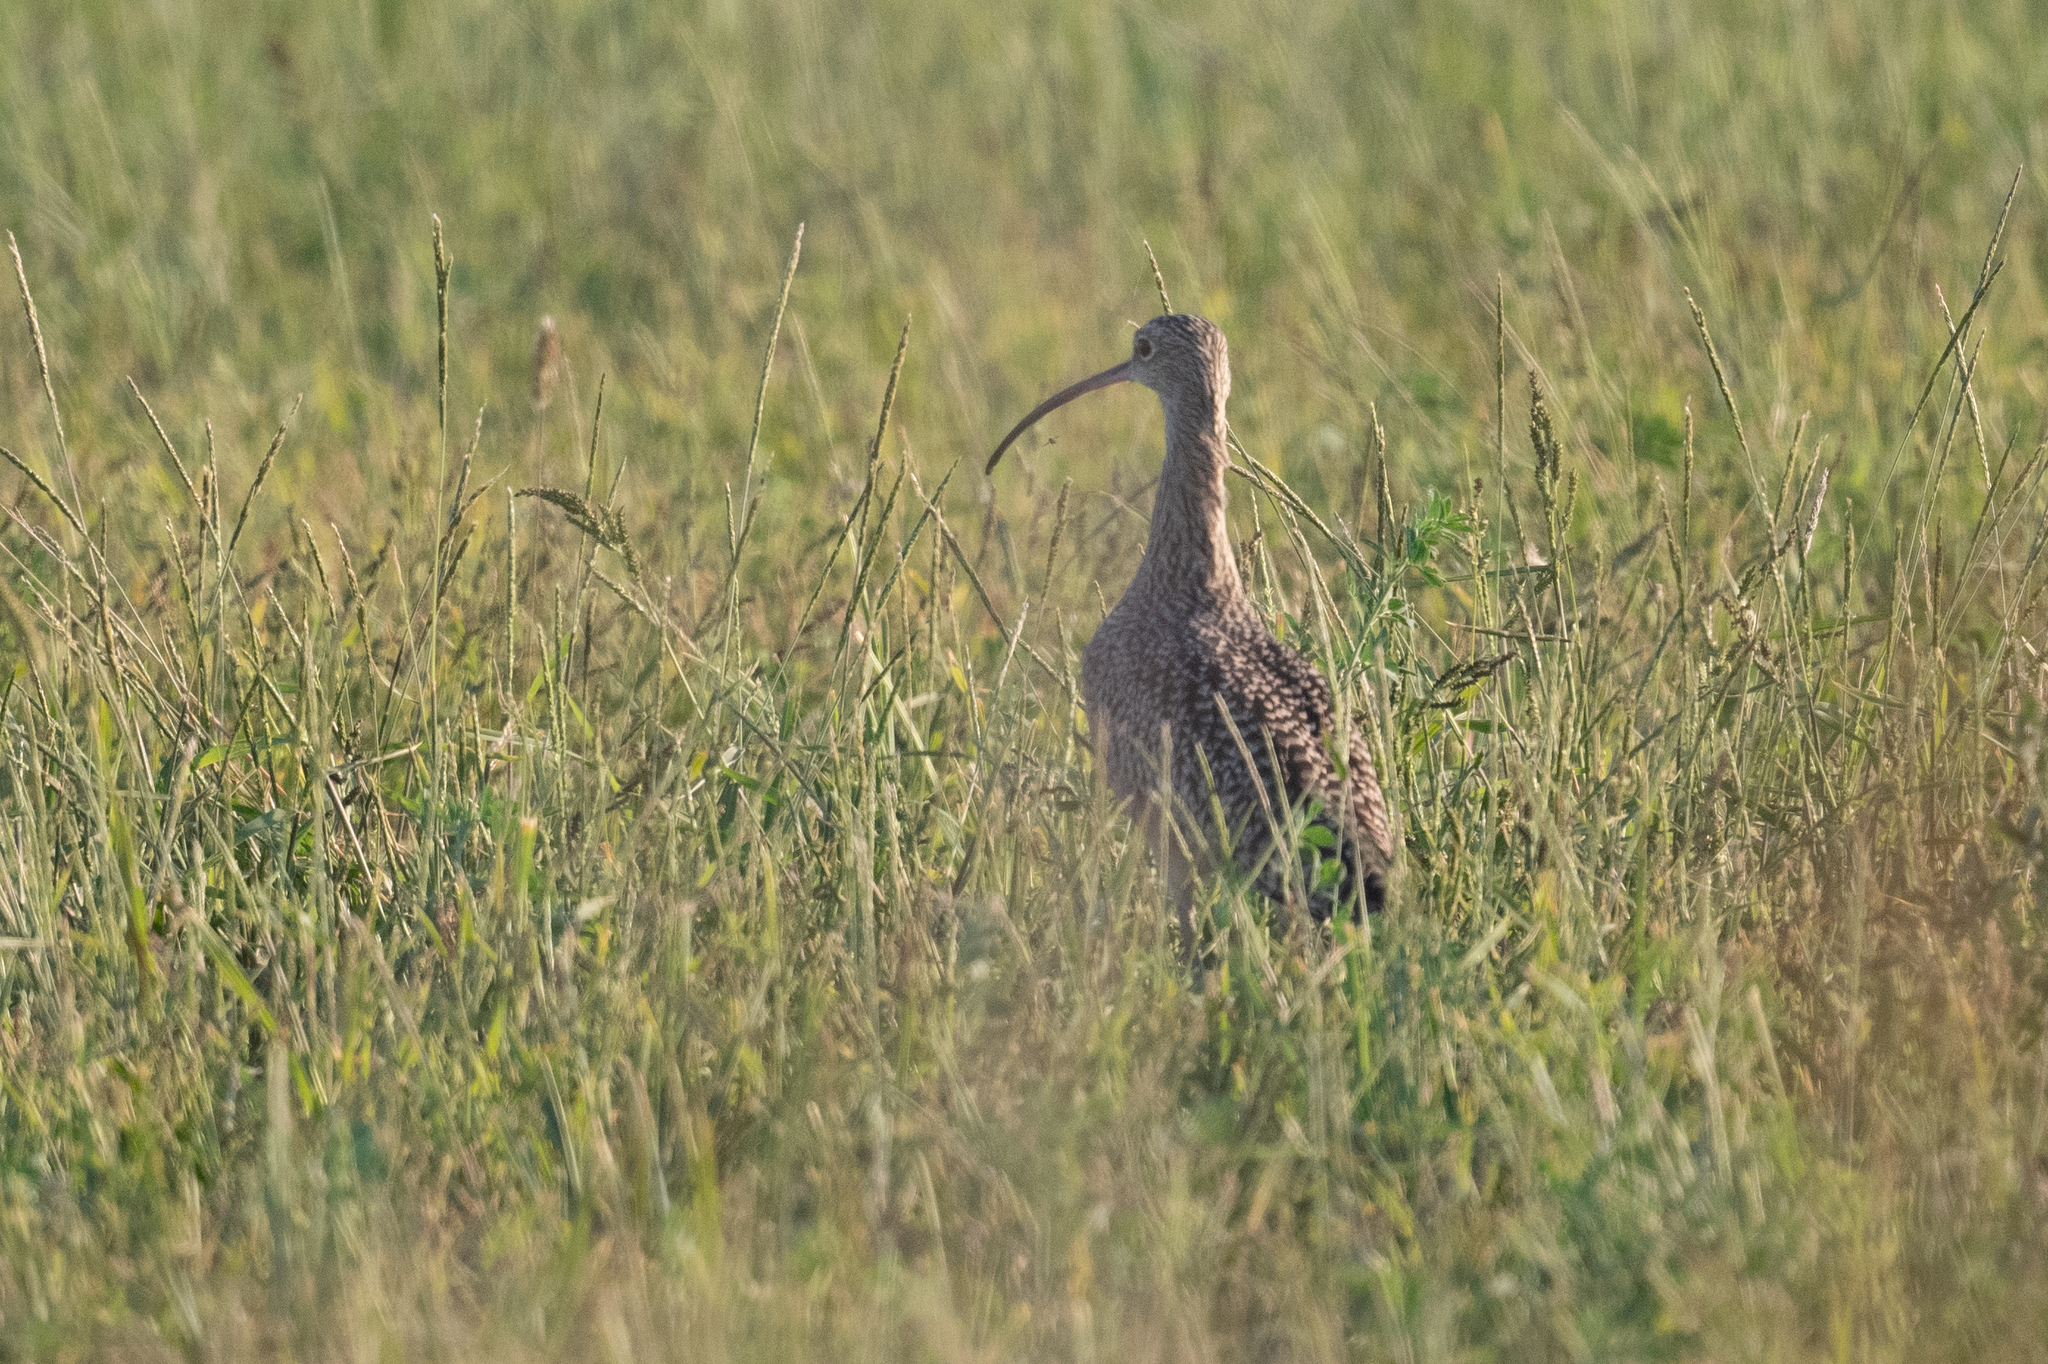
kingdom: Animalia
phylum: Chordata
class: Aves
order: Charadriiformes
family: Scolopacidae
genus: Numenius
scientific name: Numenius americanus
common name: Long-billed curlew
